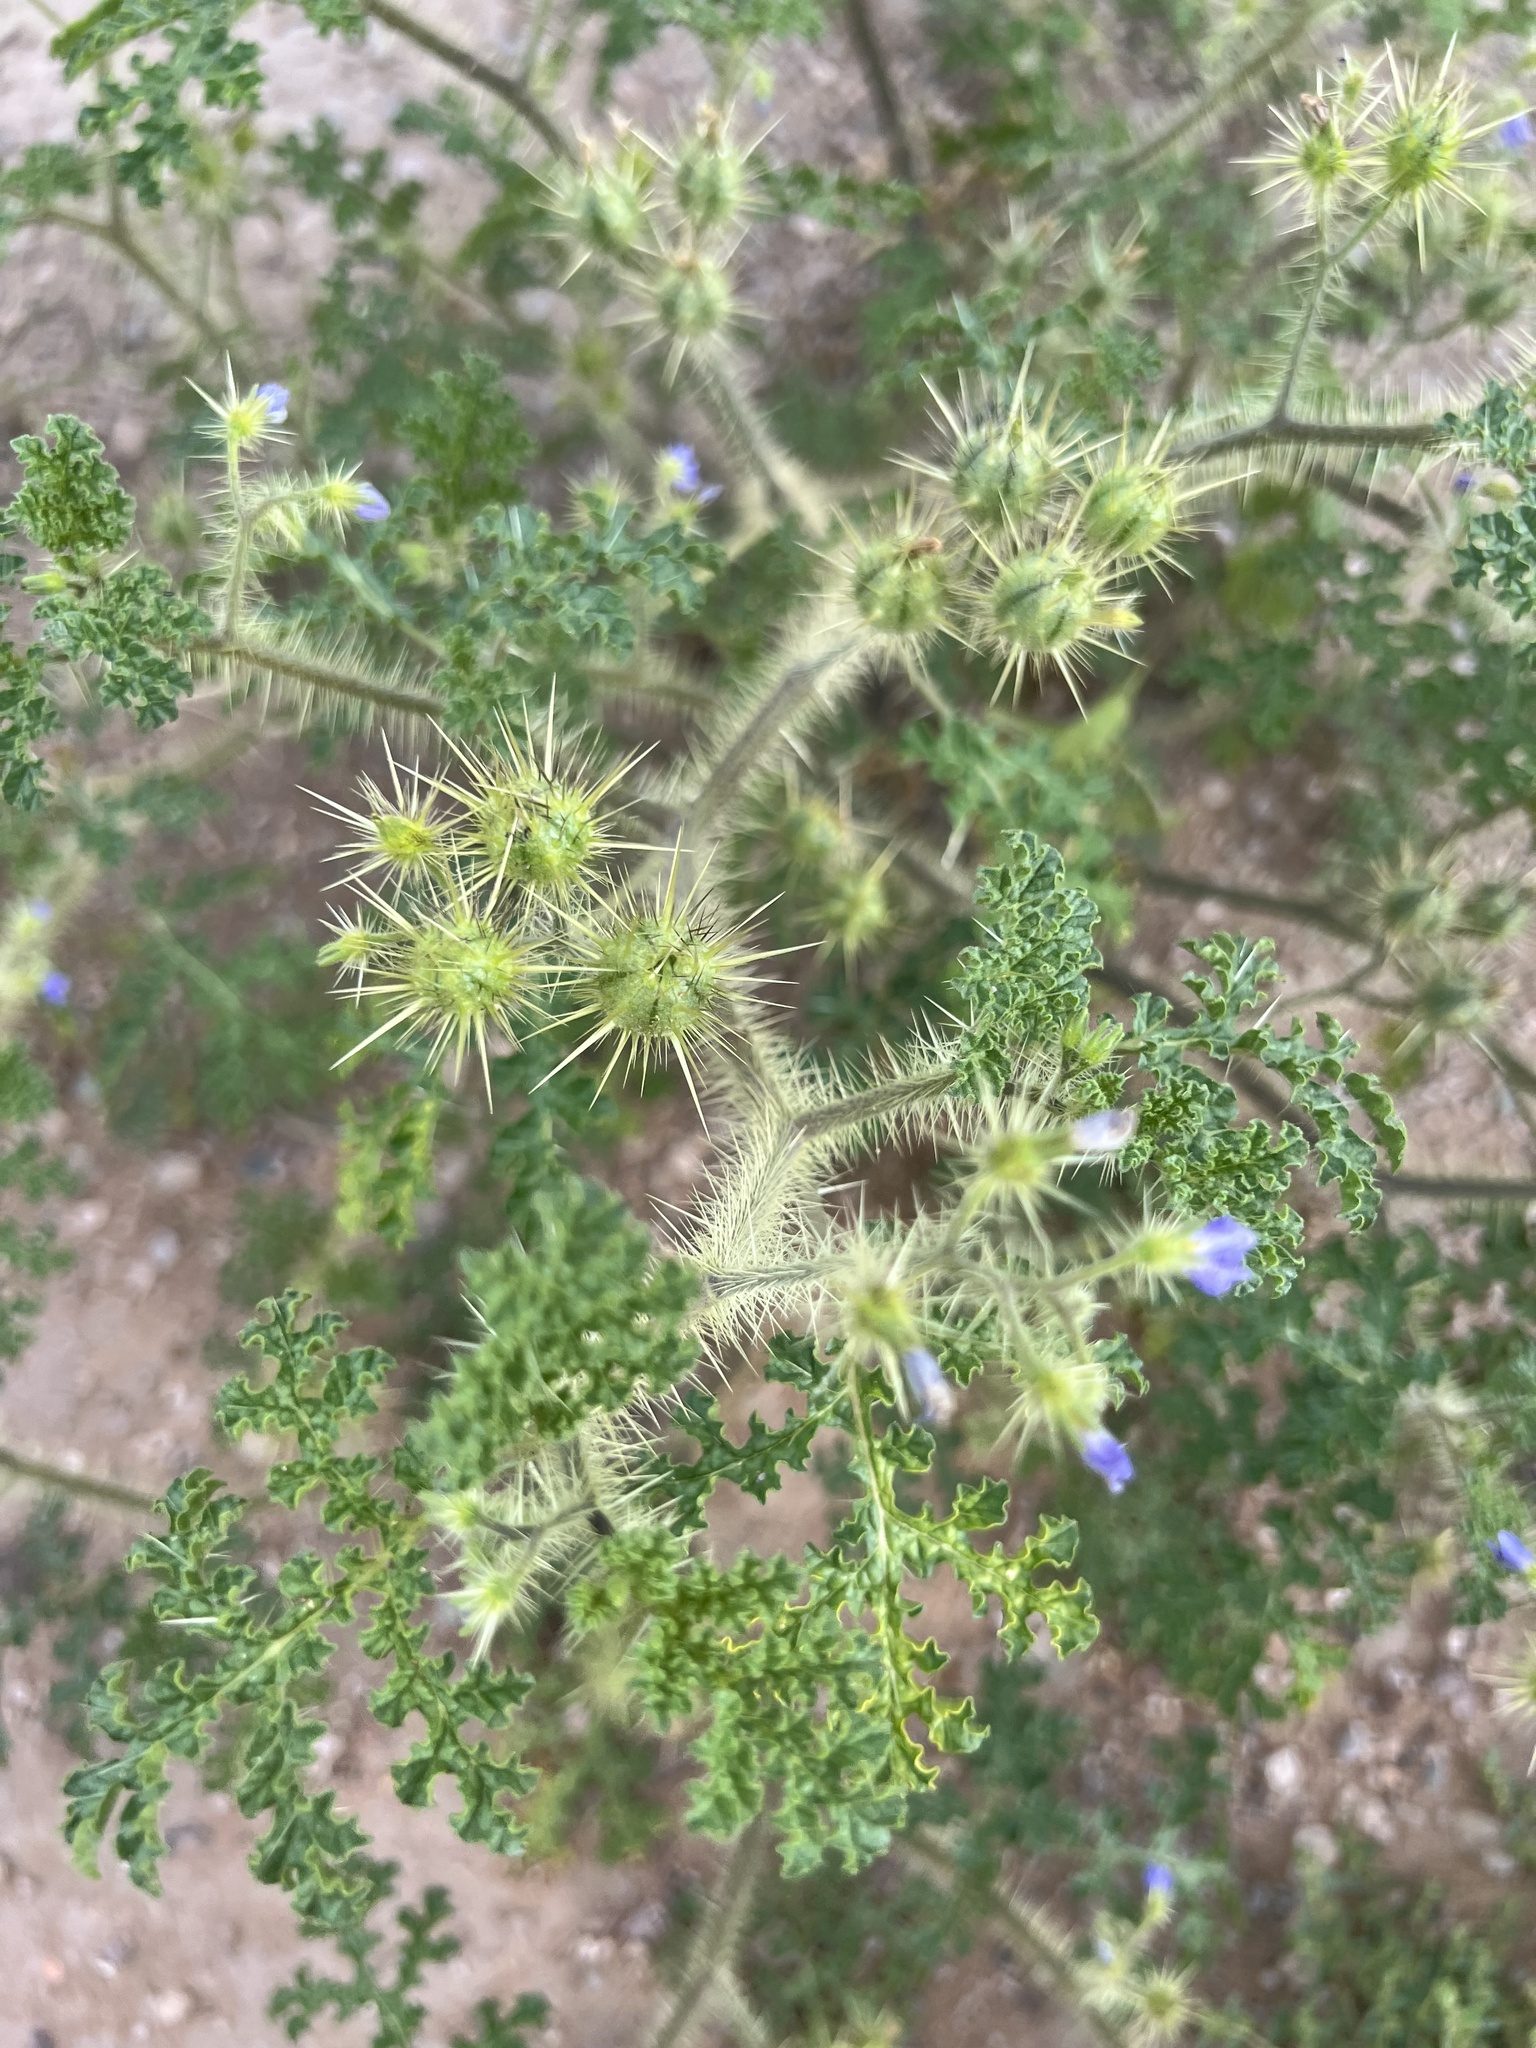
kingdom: Plantae
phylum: Tracheophyta
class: Magnoliopsida
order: Solanales
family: Solanaceae
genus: Solanum
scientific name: Solanum heterodoxum
